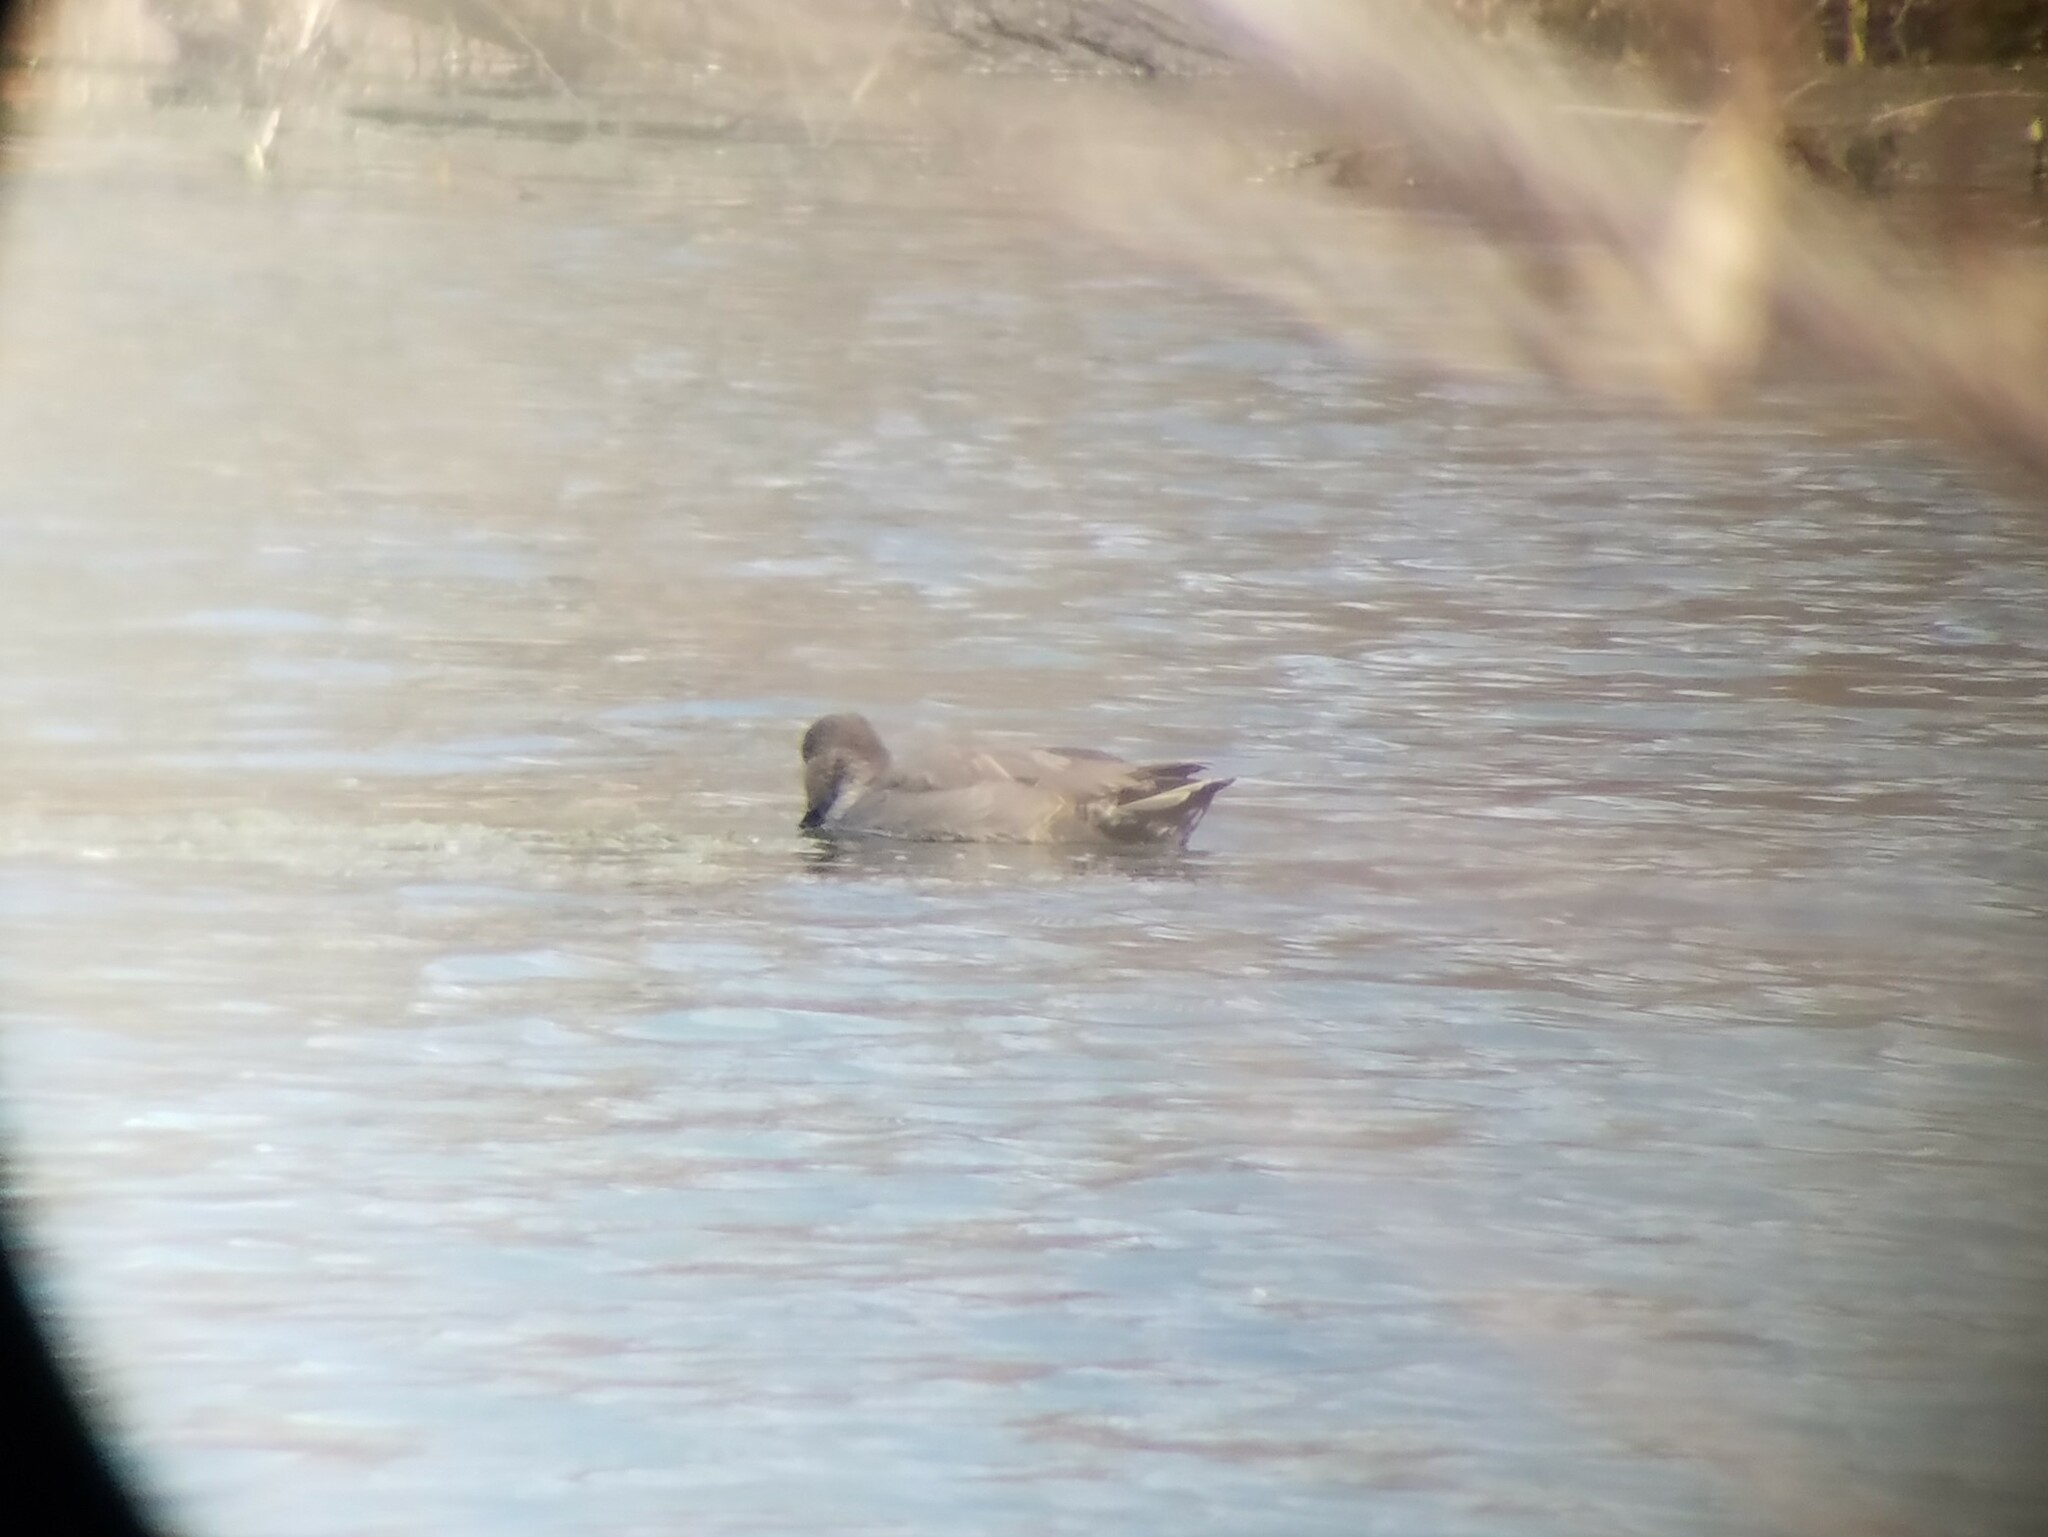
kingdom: Animalia
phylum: Chordata
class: Aves
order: Anseriformes
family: Anatidae
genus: Mareca
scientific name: Mareca strepera
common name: Gadwall
